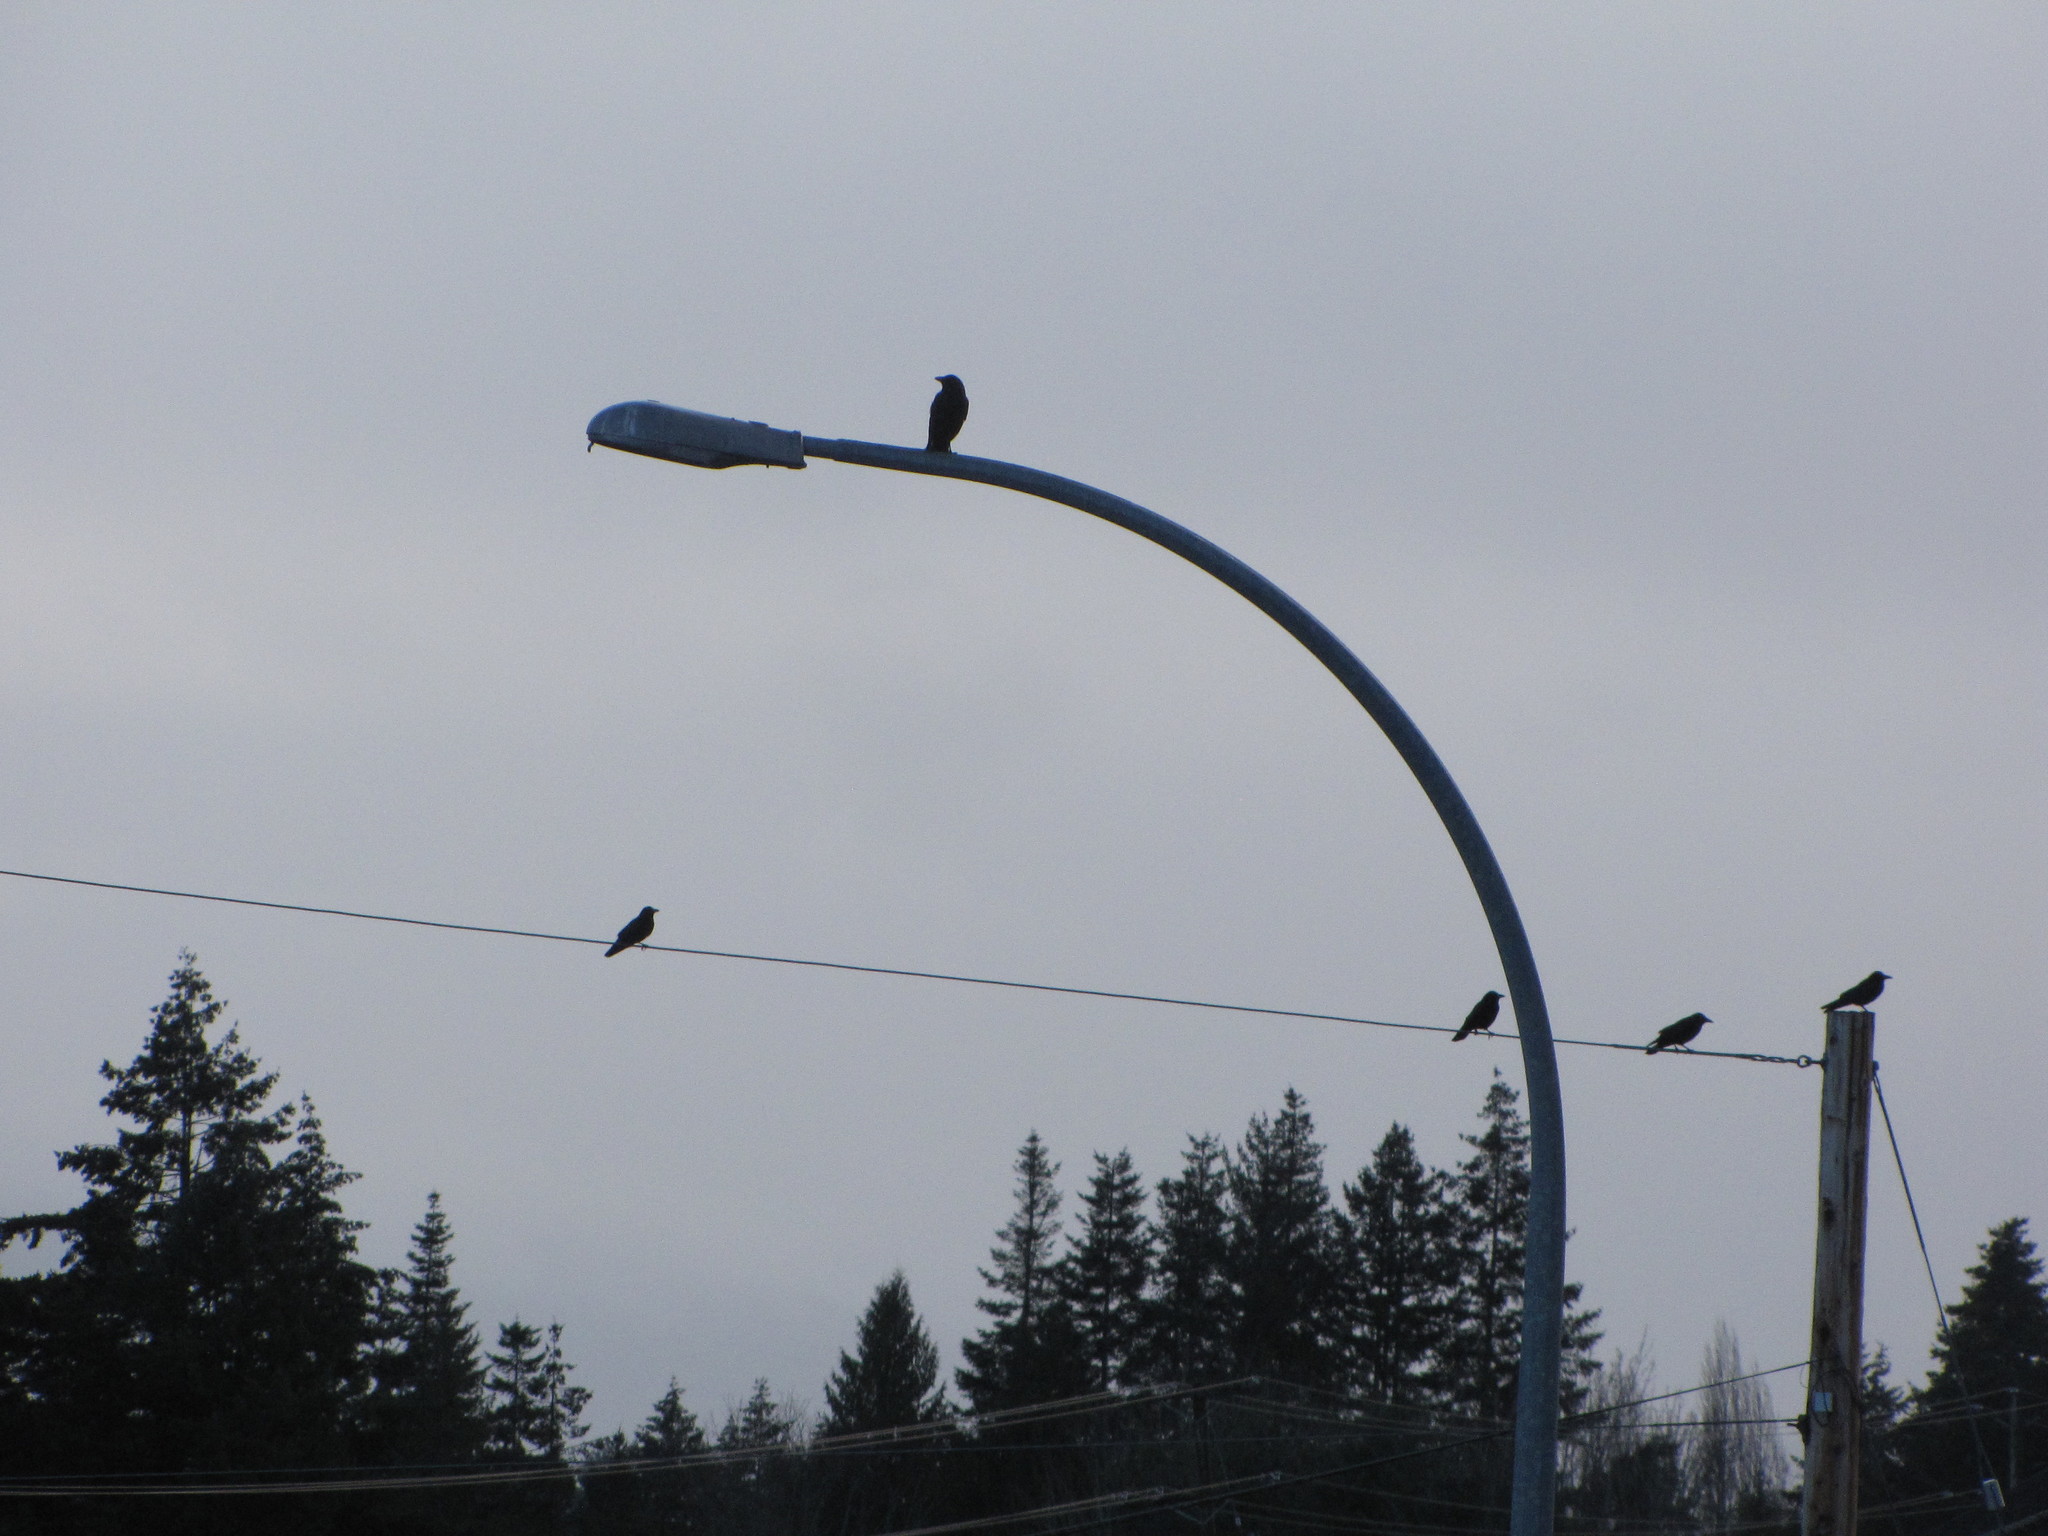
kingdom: Animalia
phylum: Chordata
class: Aves
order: Passeriformes
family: Corvidae
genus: Corvus
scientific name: Corvus brachyrhynchos
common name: American crow
